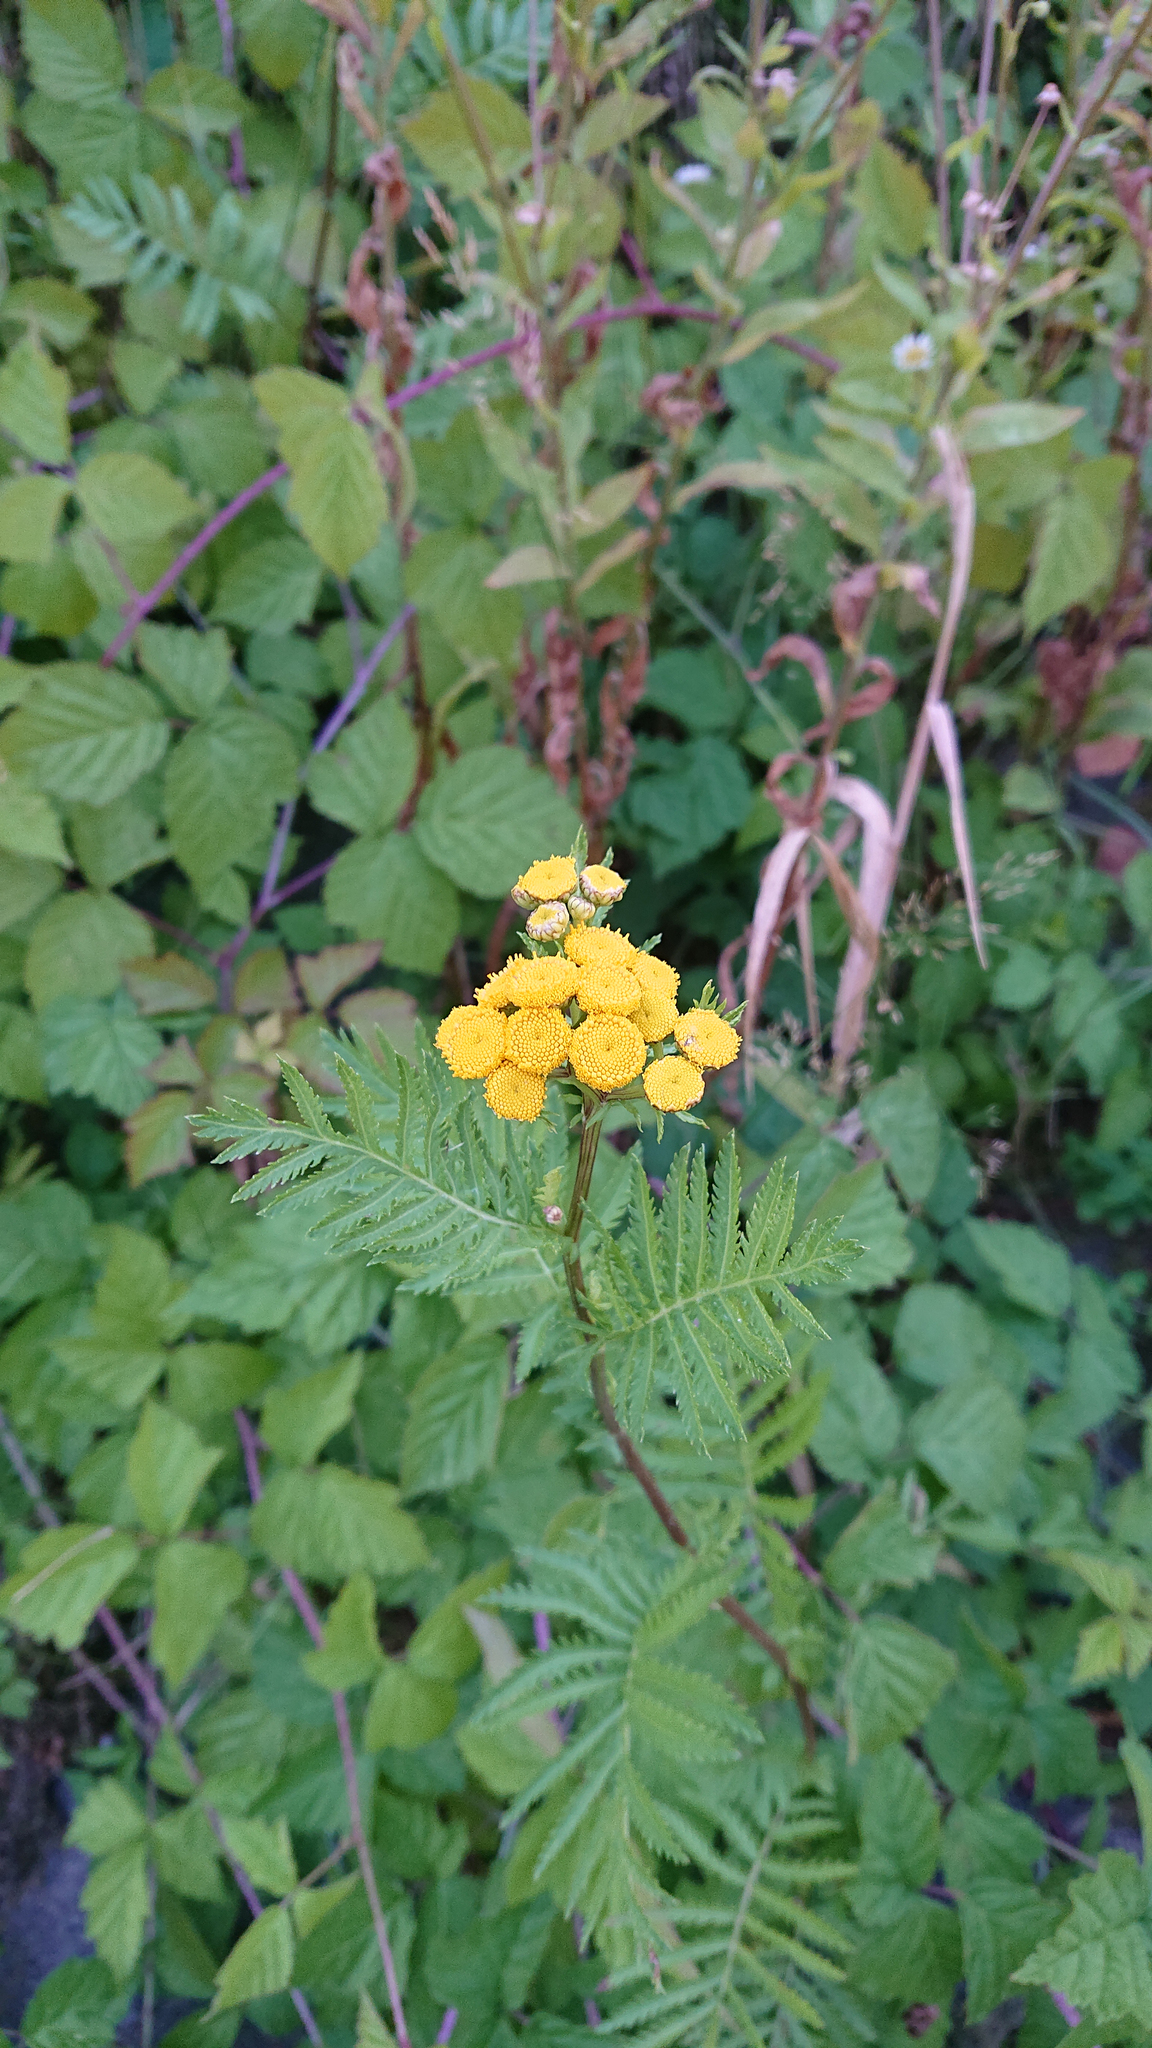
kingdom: Plantae
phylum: Tracheophyta
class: Magnoliopsida
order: Asterales
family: Asteraceae
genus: Tanacetum
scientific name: Tanacetum vulgare
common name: Common tansy
